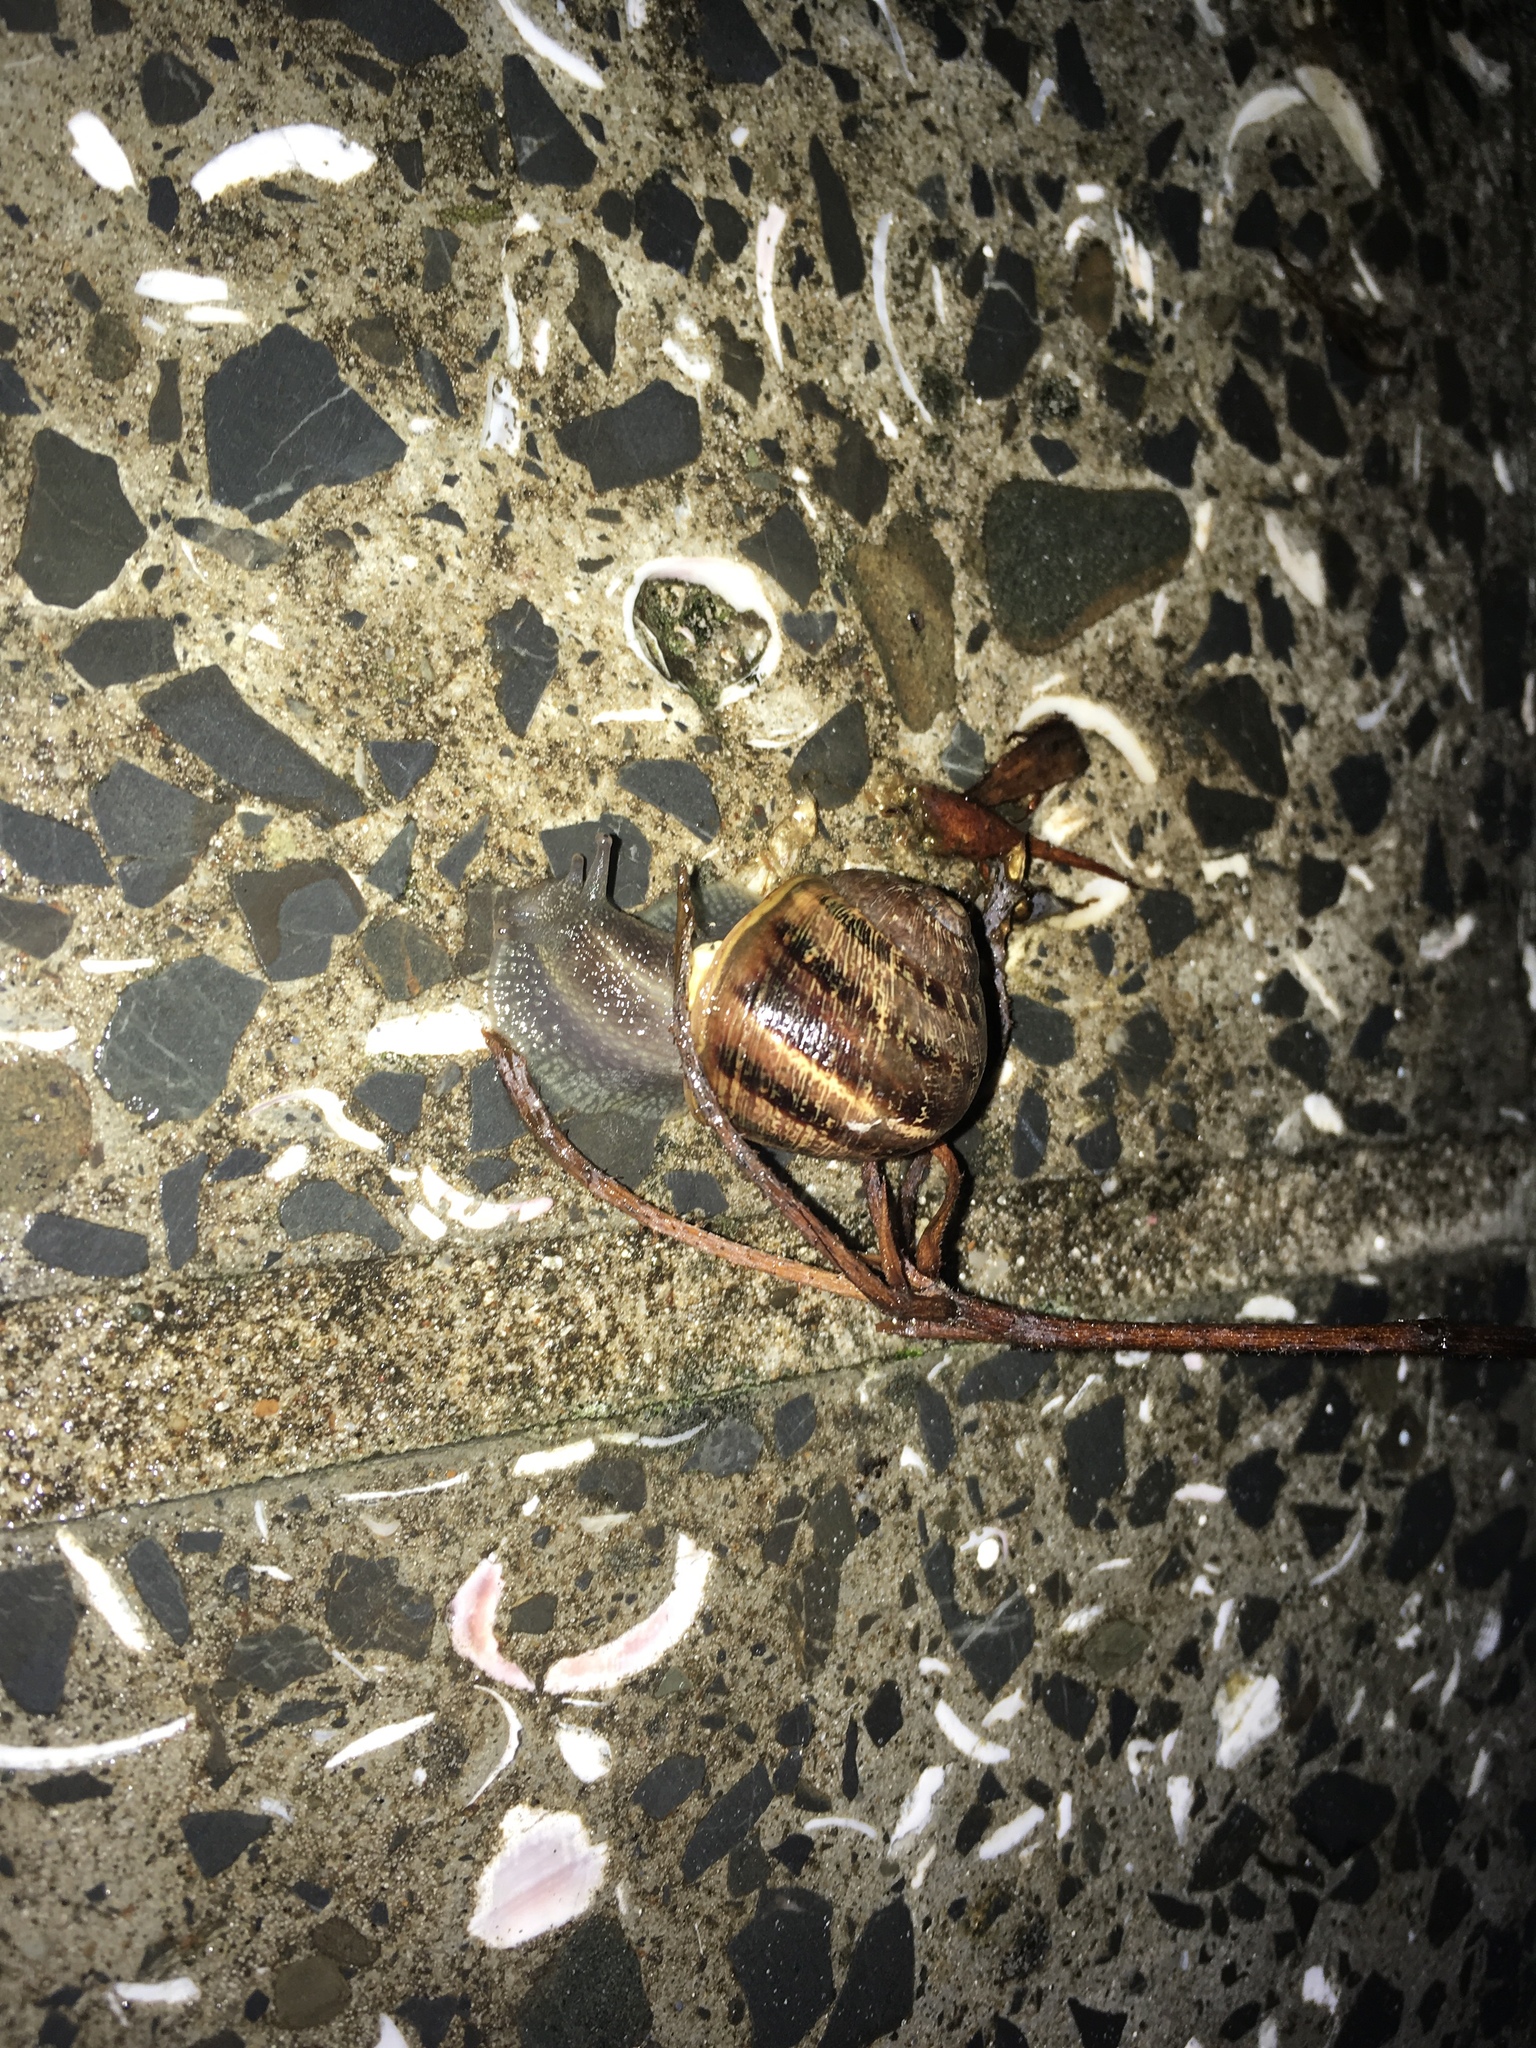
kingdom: Animalia
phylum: Mollusca
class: Gastropoda
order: Stylommatophora
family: Helicidae
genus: Cornu
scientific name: Cornu aspersum
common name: Brown garden snail
